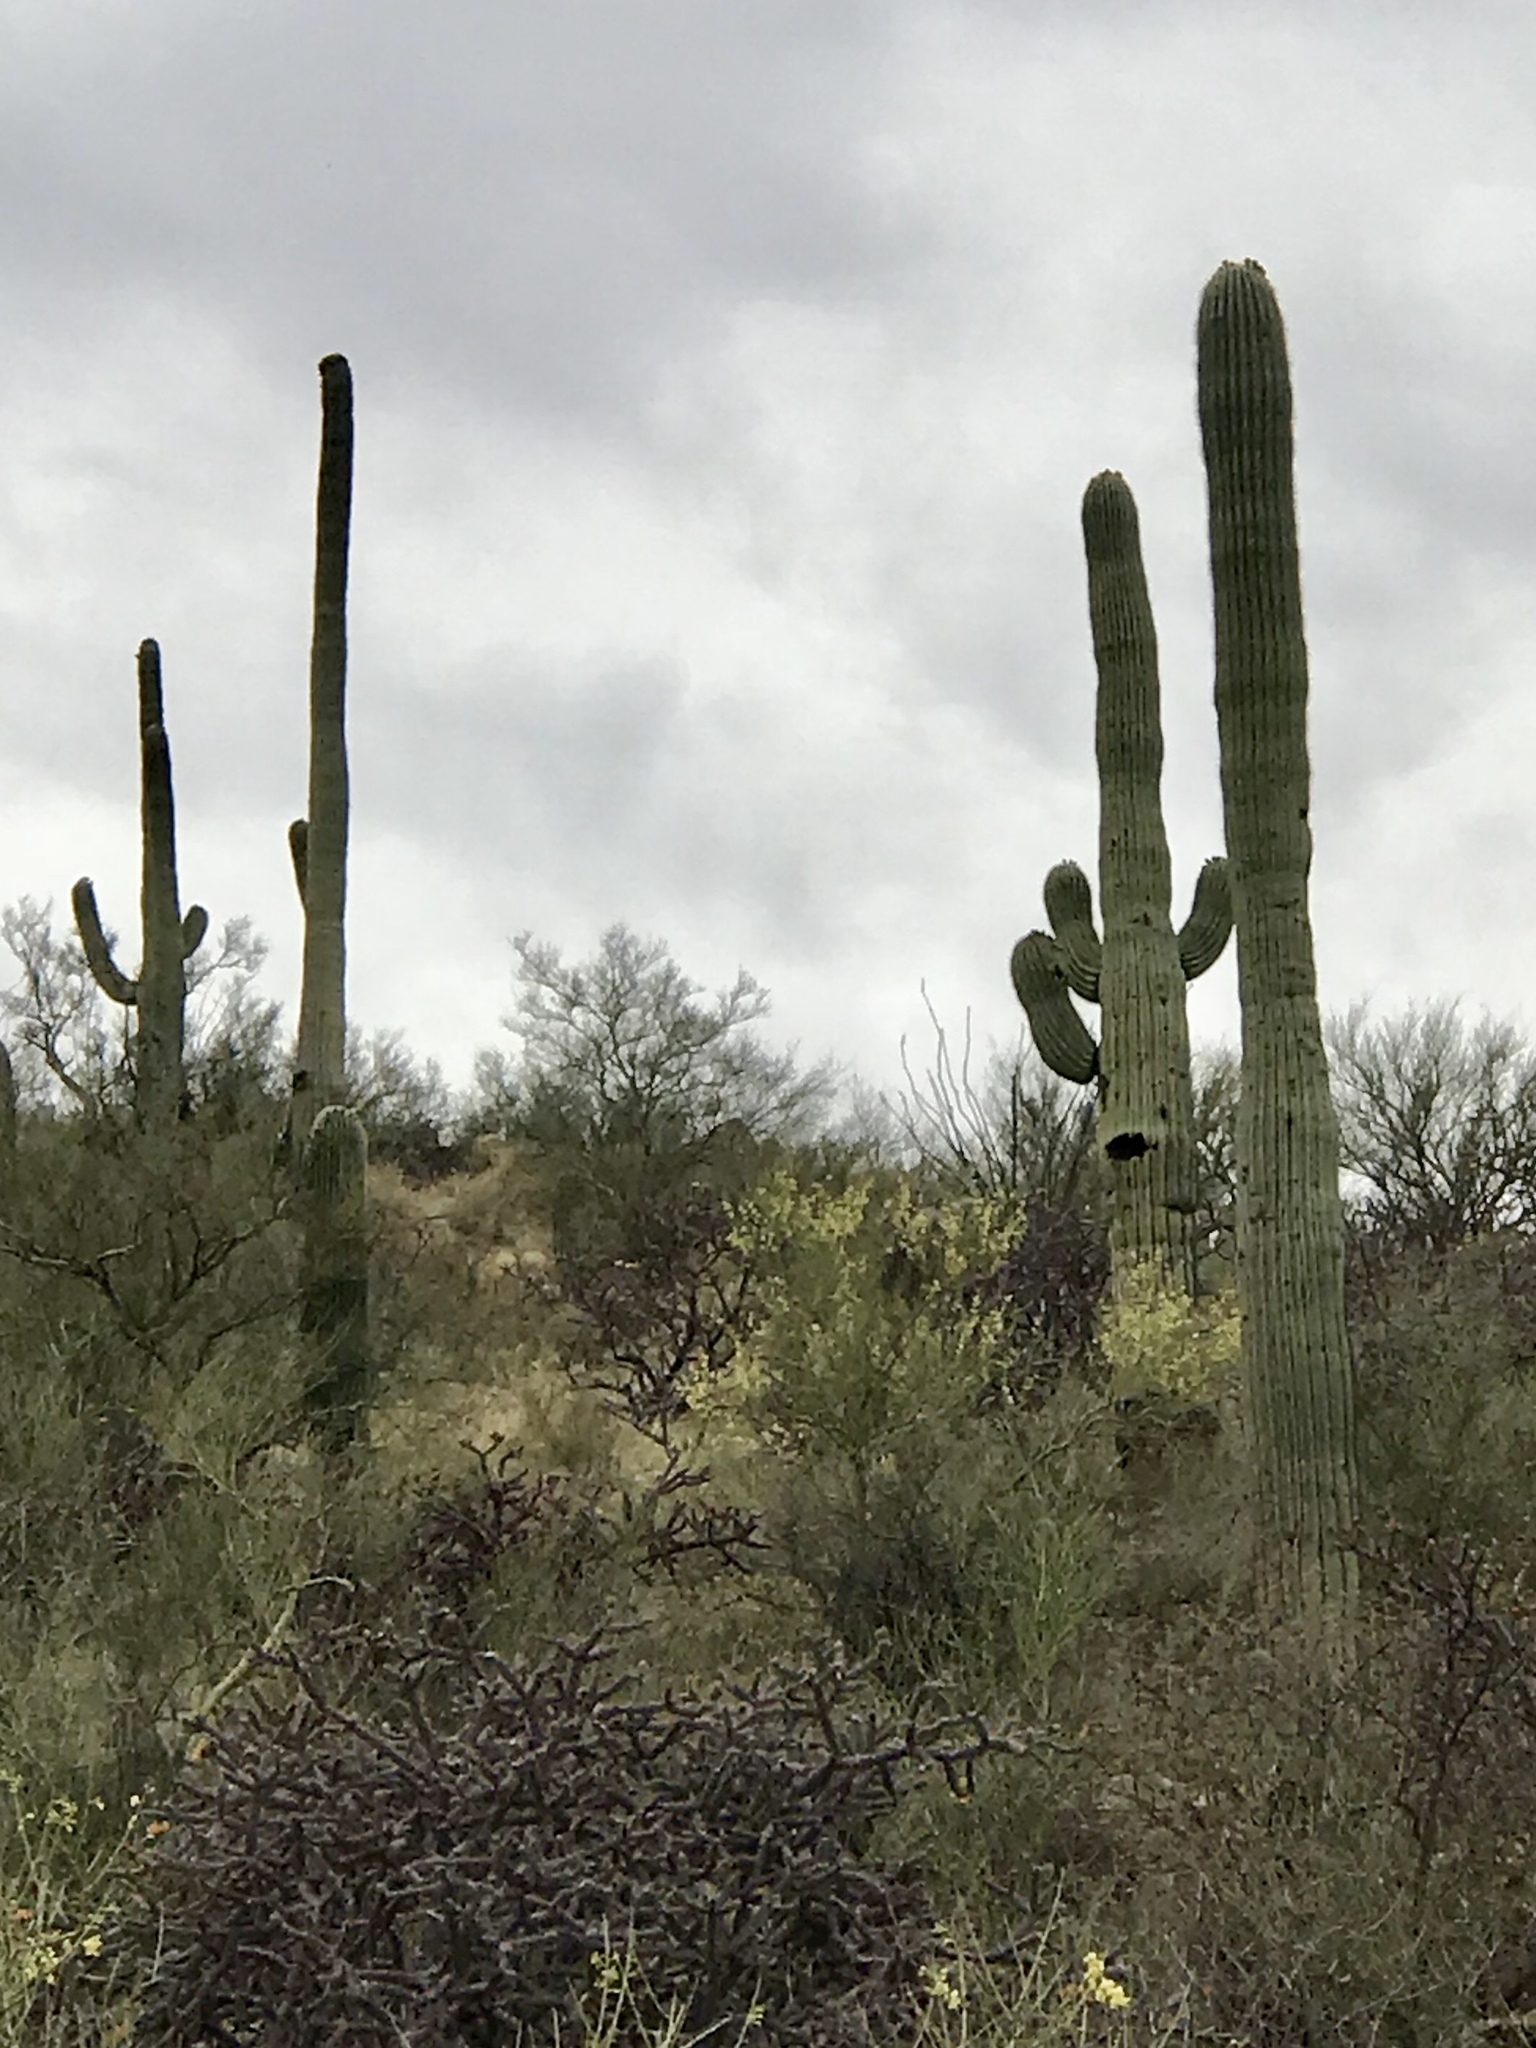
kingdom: Plantae
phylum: Tracheophyta
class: Magnoliopsida
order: Caryophyllales
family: Cactaceae
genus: Carnegiea
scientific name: Carnegiea gigantea
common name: Saguaro
